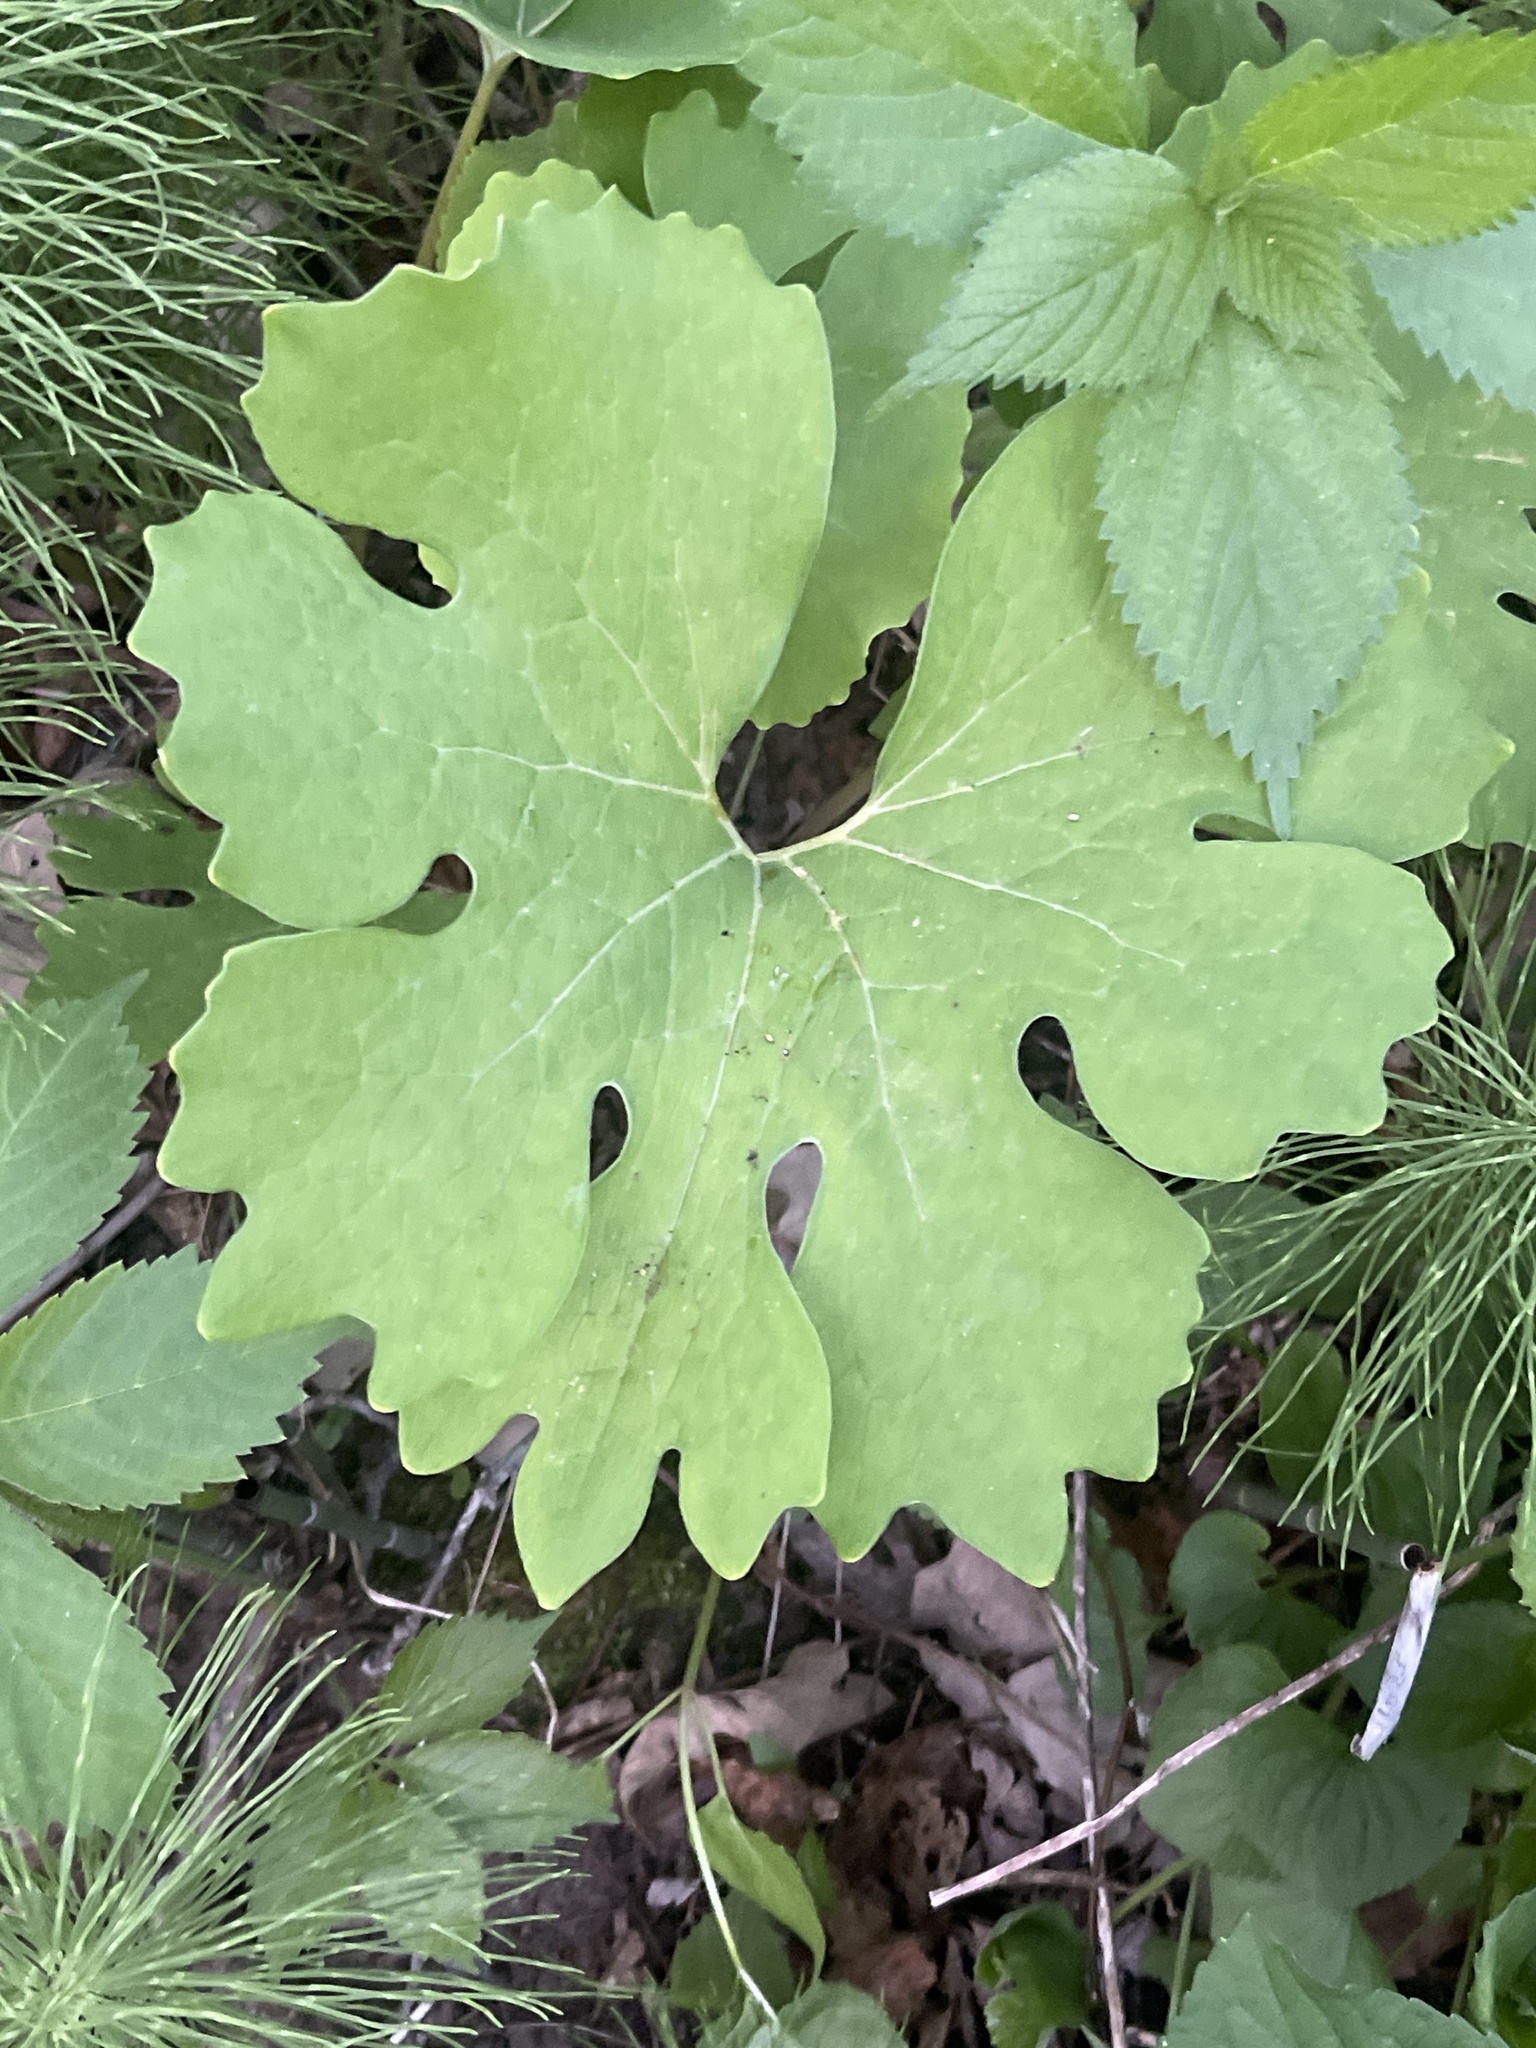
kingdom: Plantae
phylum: Tracheophyta
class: Magnoliopsida
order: Ranunculales
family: Papaveraceae
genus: Sanguinaria
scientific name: Sanguinaria canadensis
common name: Bloodroot
